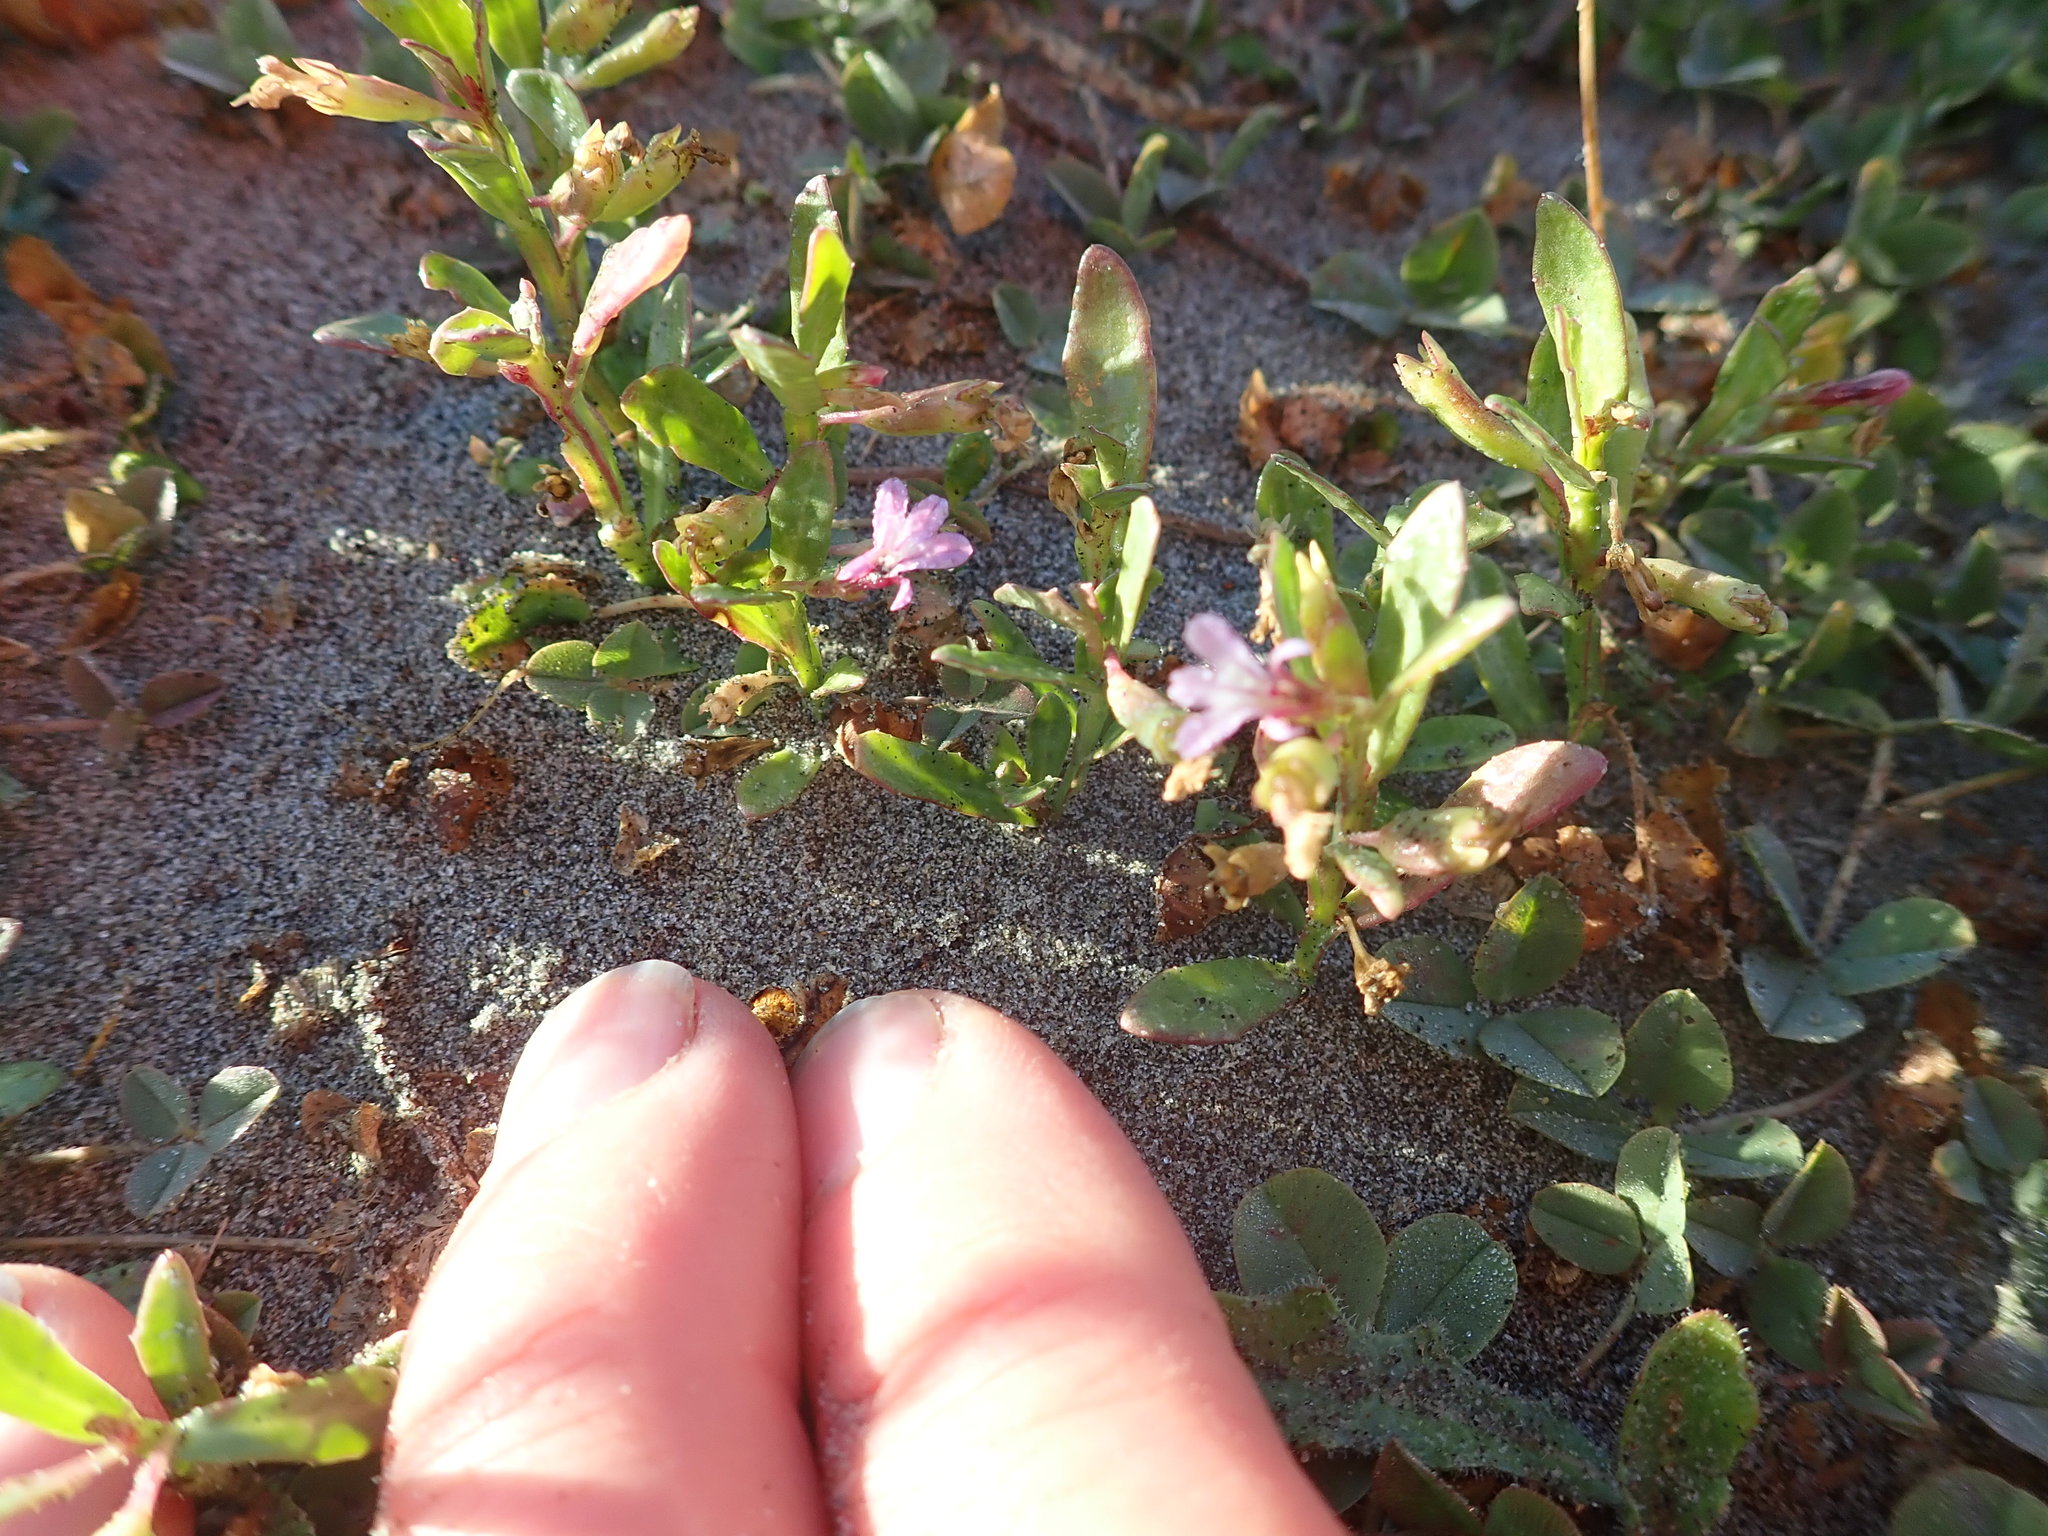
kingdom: Plantae
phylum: Tracheophyta
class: Magnoliopsida
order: Asterales
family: Campanulaceae
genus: Lobelia
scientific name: Lobelia anceps
